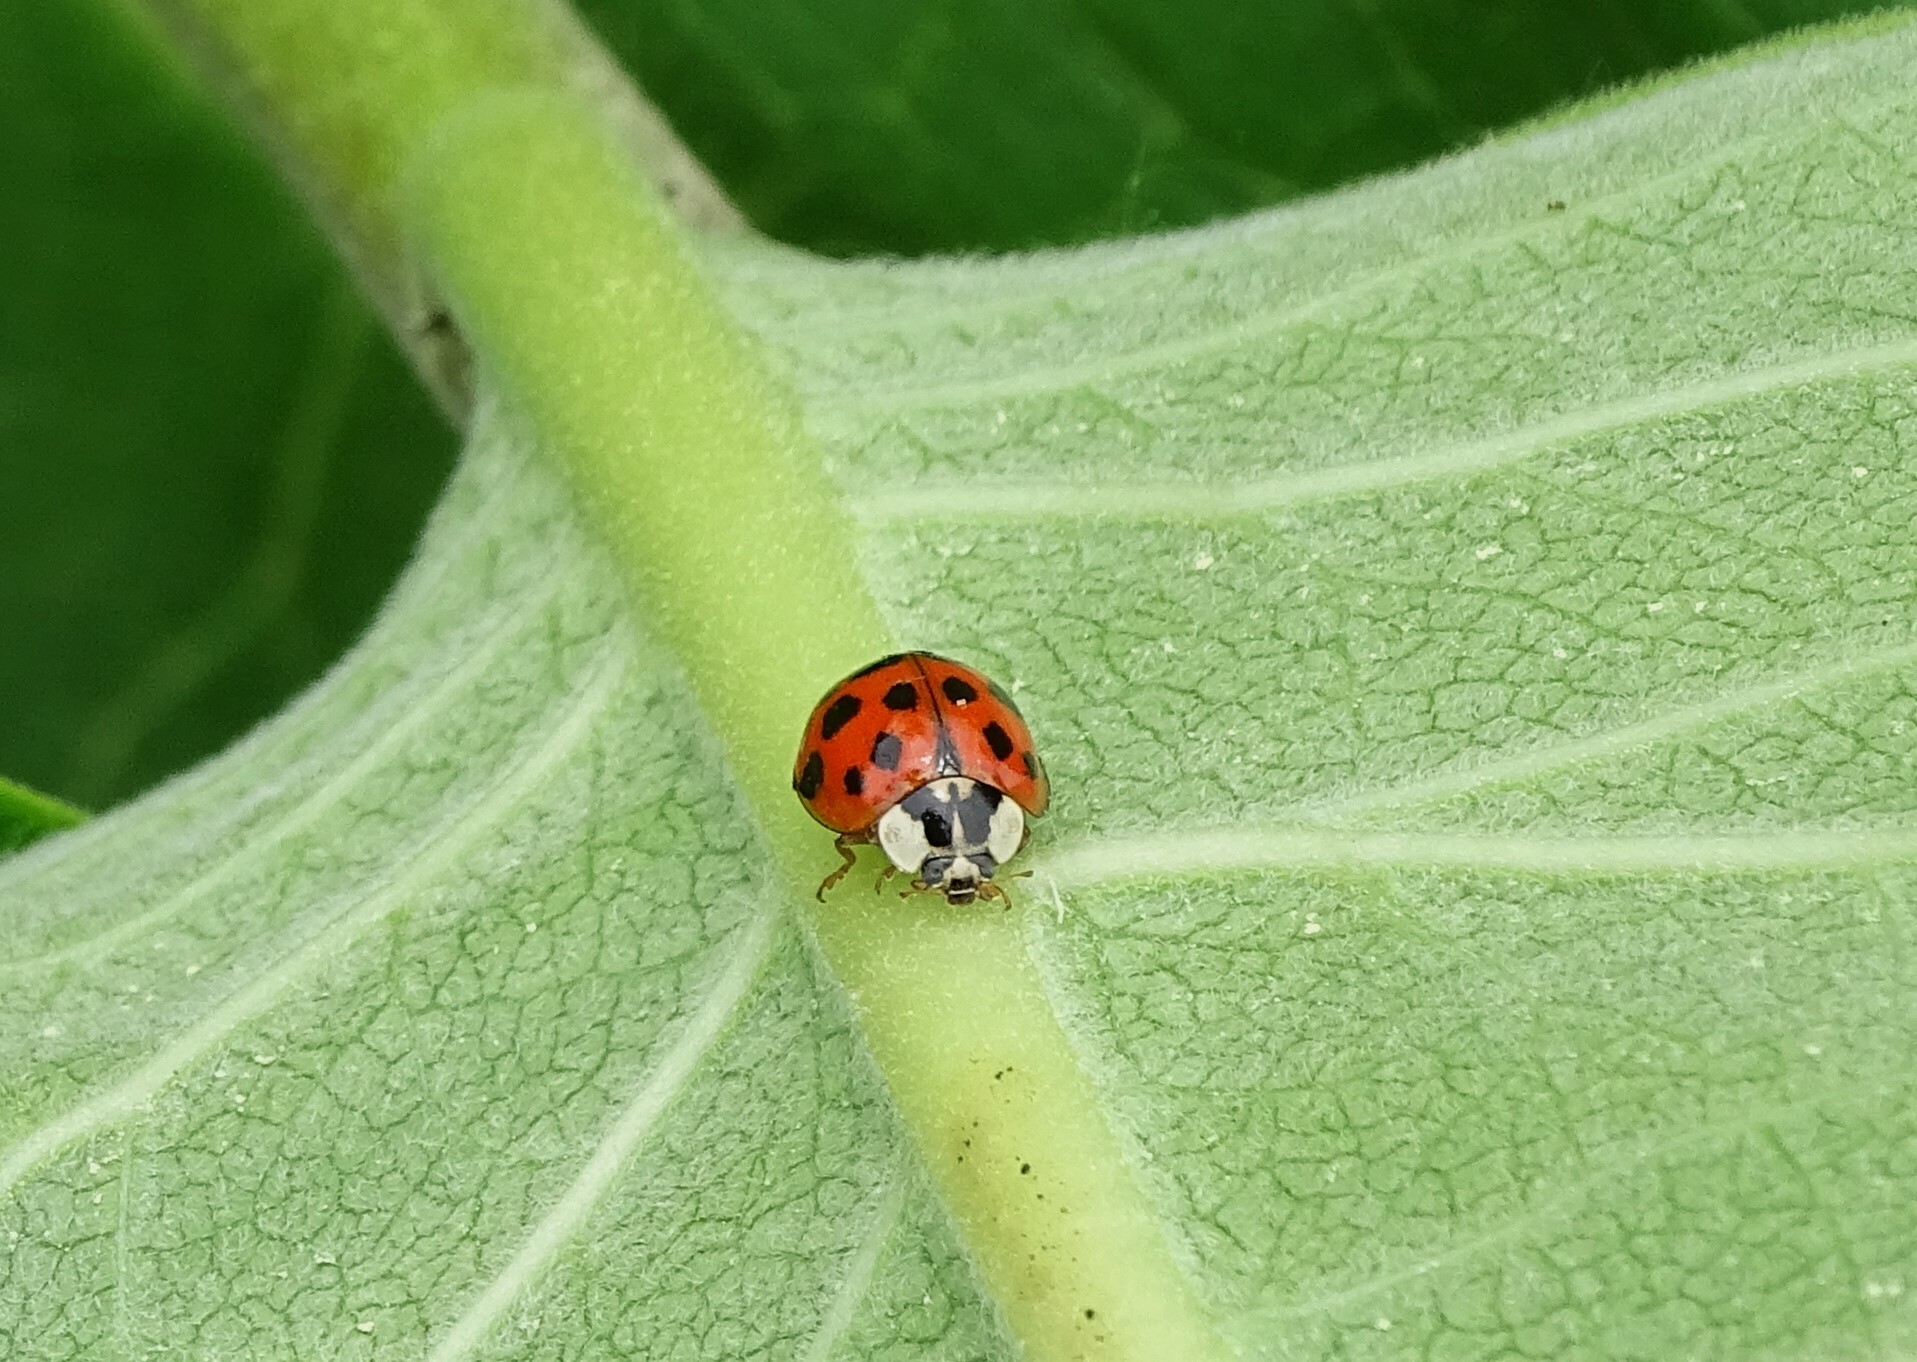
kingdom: Animalia
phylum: Arthropoda
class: Insecta
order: Coleoptera
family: Coccinellidae
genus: Harmonia
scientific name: Harmonia axyridis
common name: Harlequin ladybird
